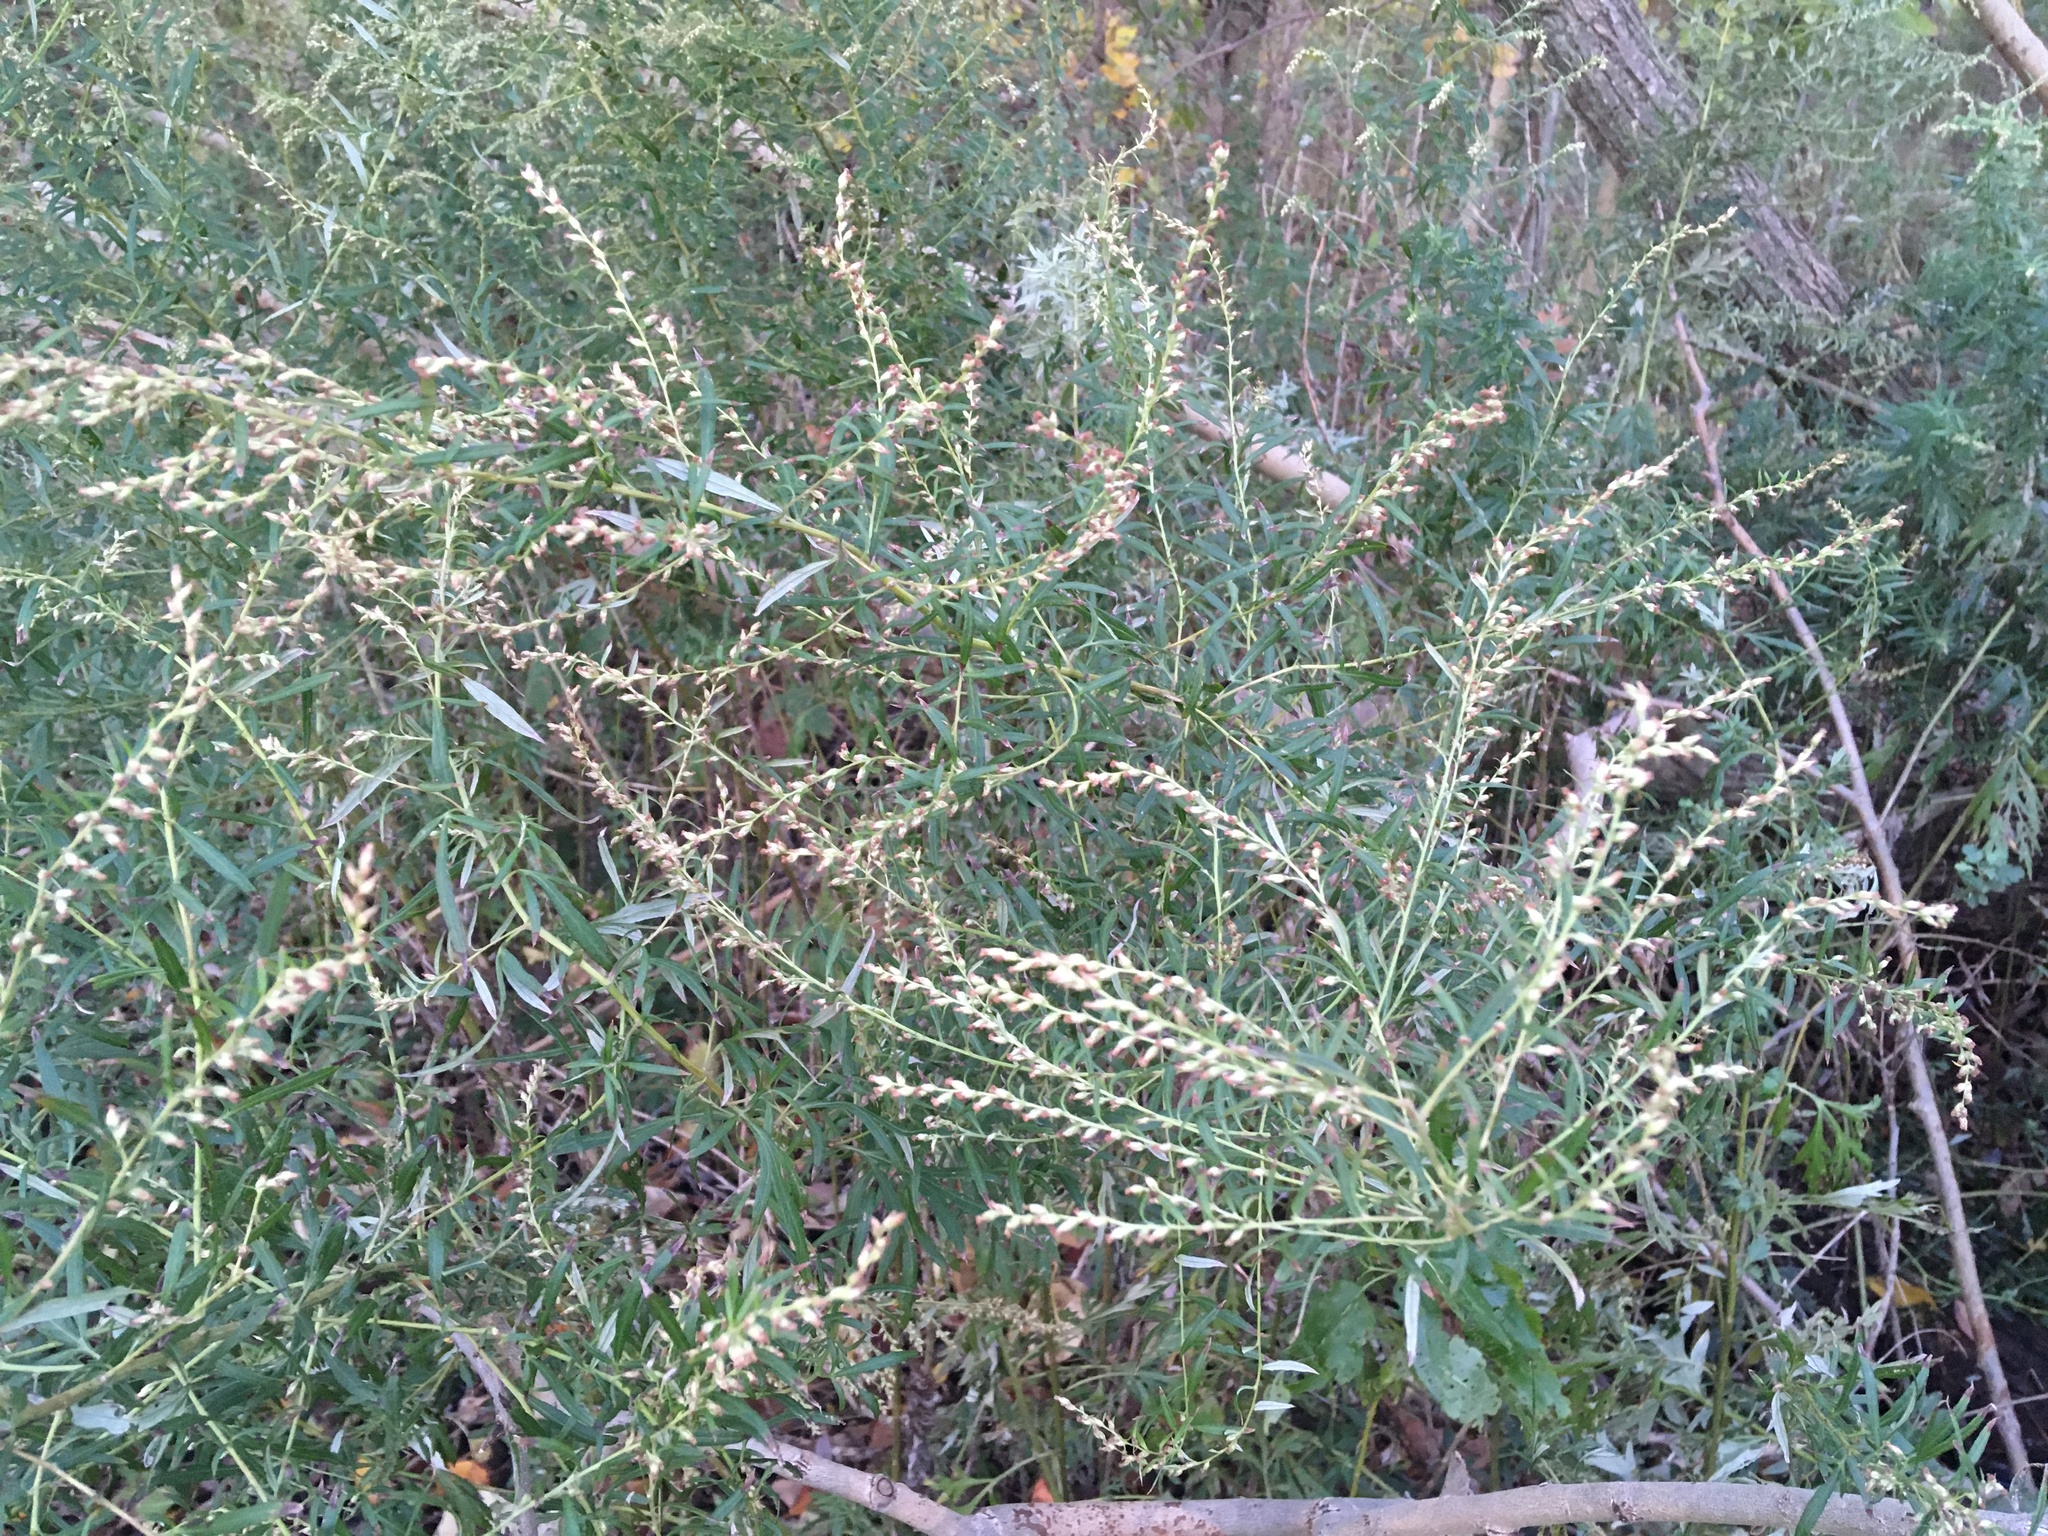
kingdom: Plantae
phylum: Tracheophyta
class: Magnoliopsida
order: Asterales
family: Asteraceae
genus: Artemisia
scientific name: Artemisia vulgaris
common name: Mugwort
